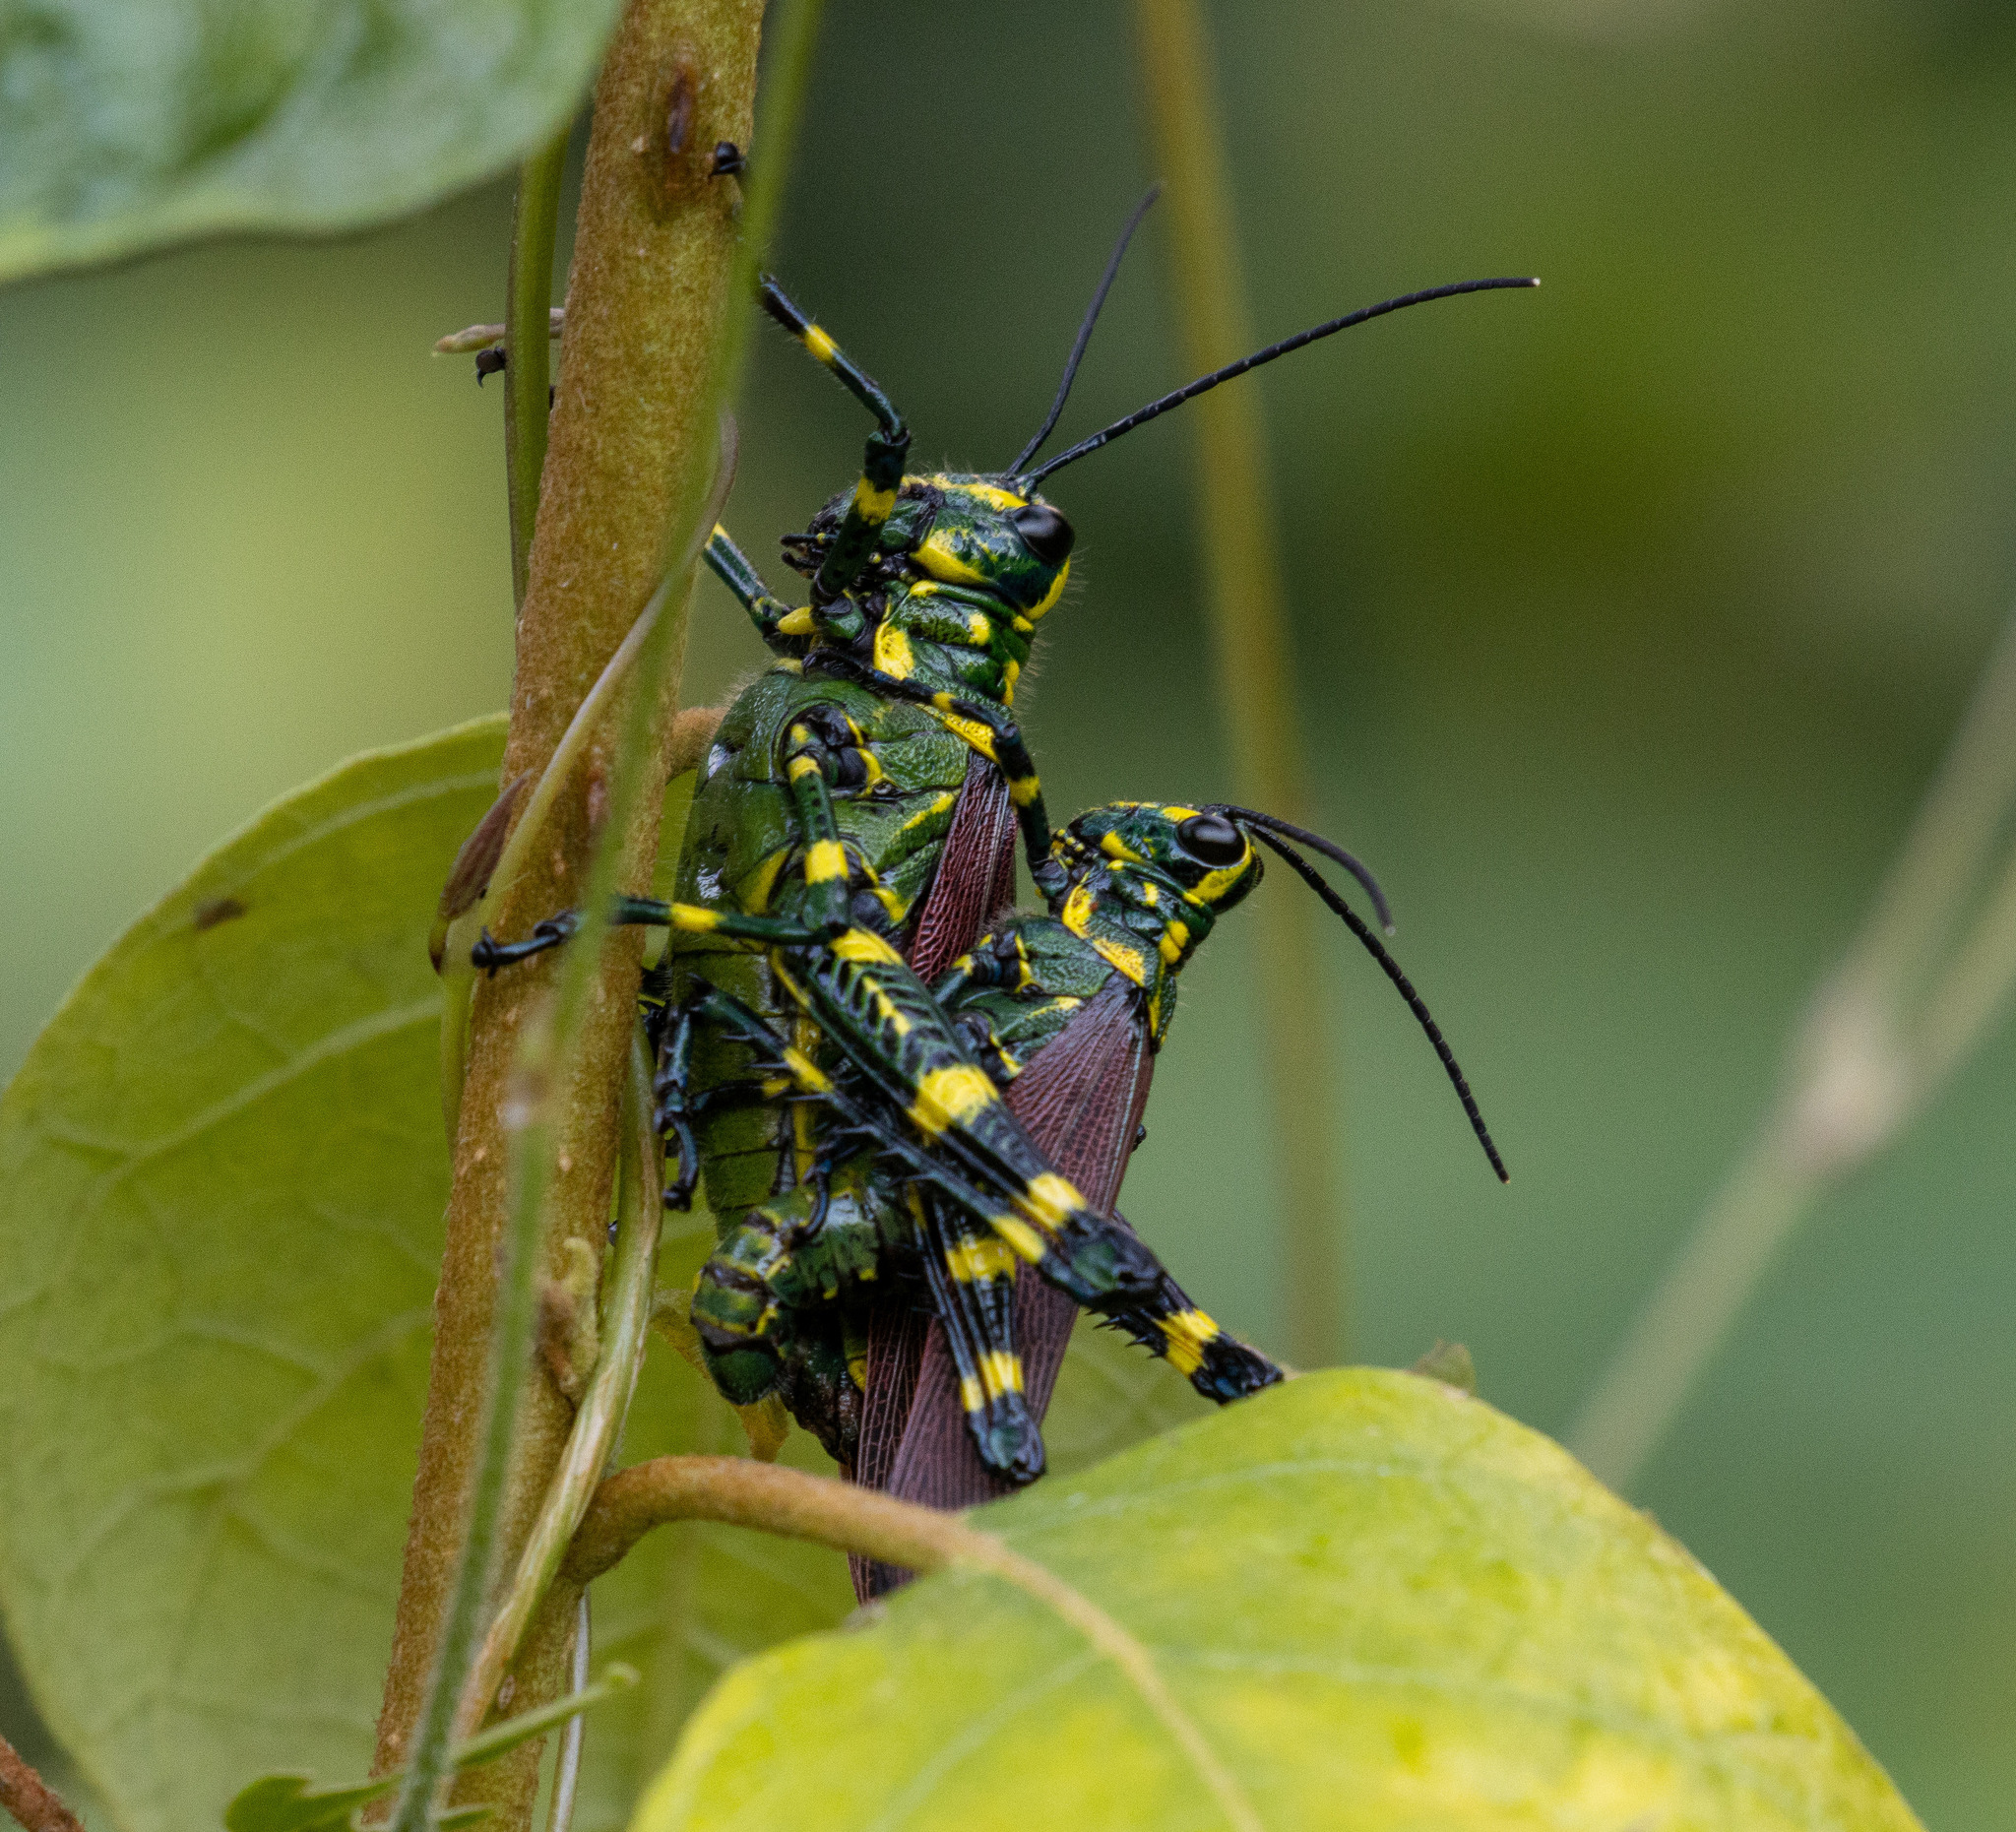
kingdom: Animalia
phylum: Arthropoda
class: Insecta
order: Orthoptera
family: Romaleidae
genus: Chromacris
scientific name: Chromacris speciosa
